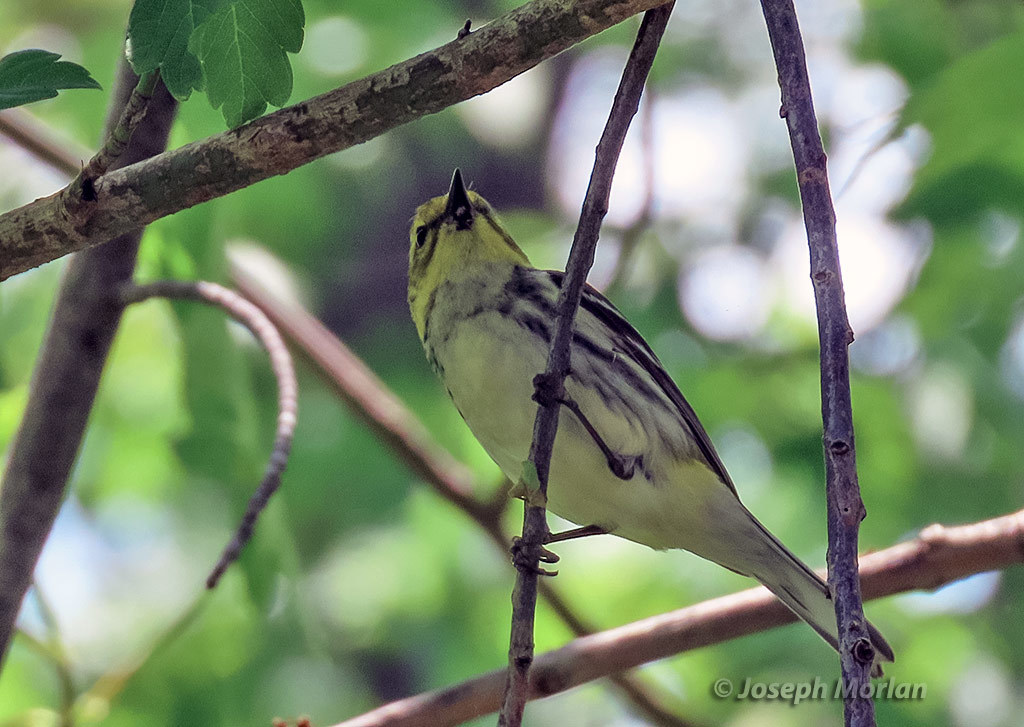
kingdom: Animalia
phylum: Chordata
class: Aves
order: Passeriformes
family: Parulidae
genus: Setophaga
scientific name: Setophaga virens
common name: Black-throated green warbler
